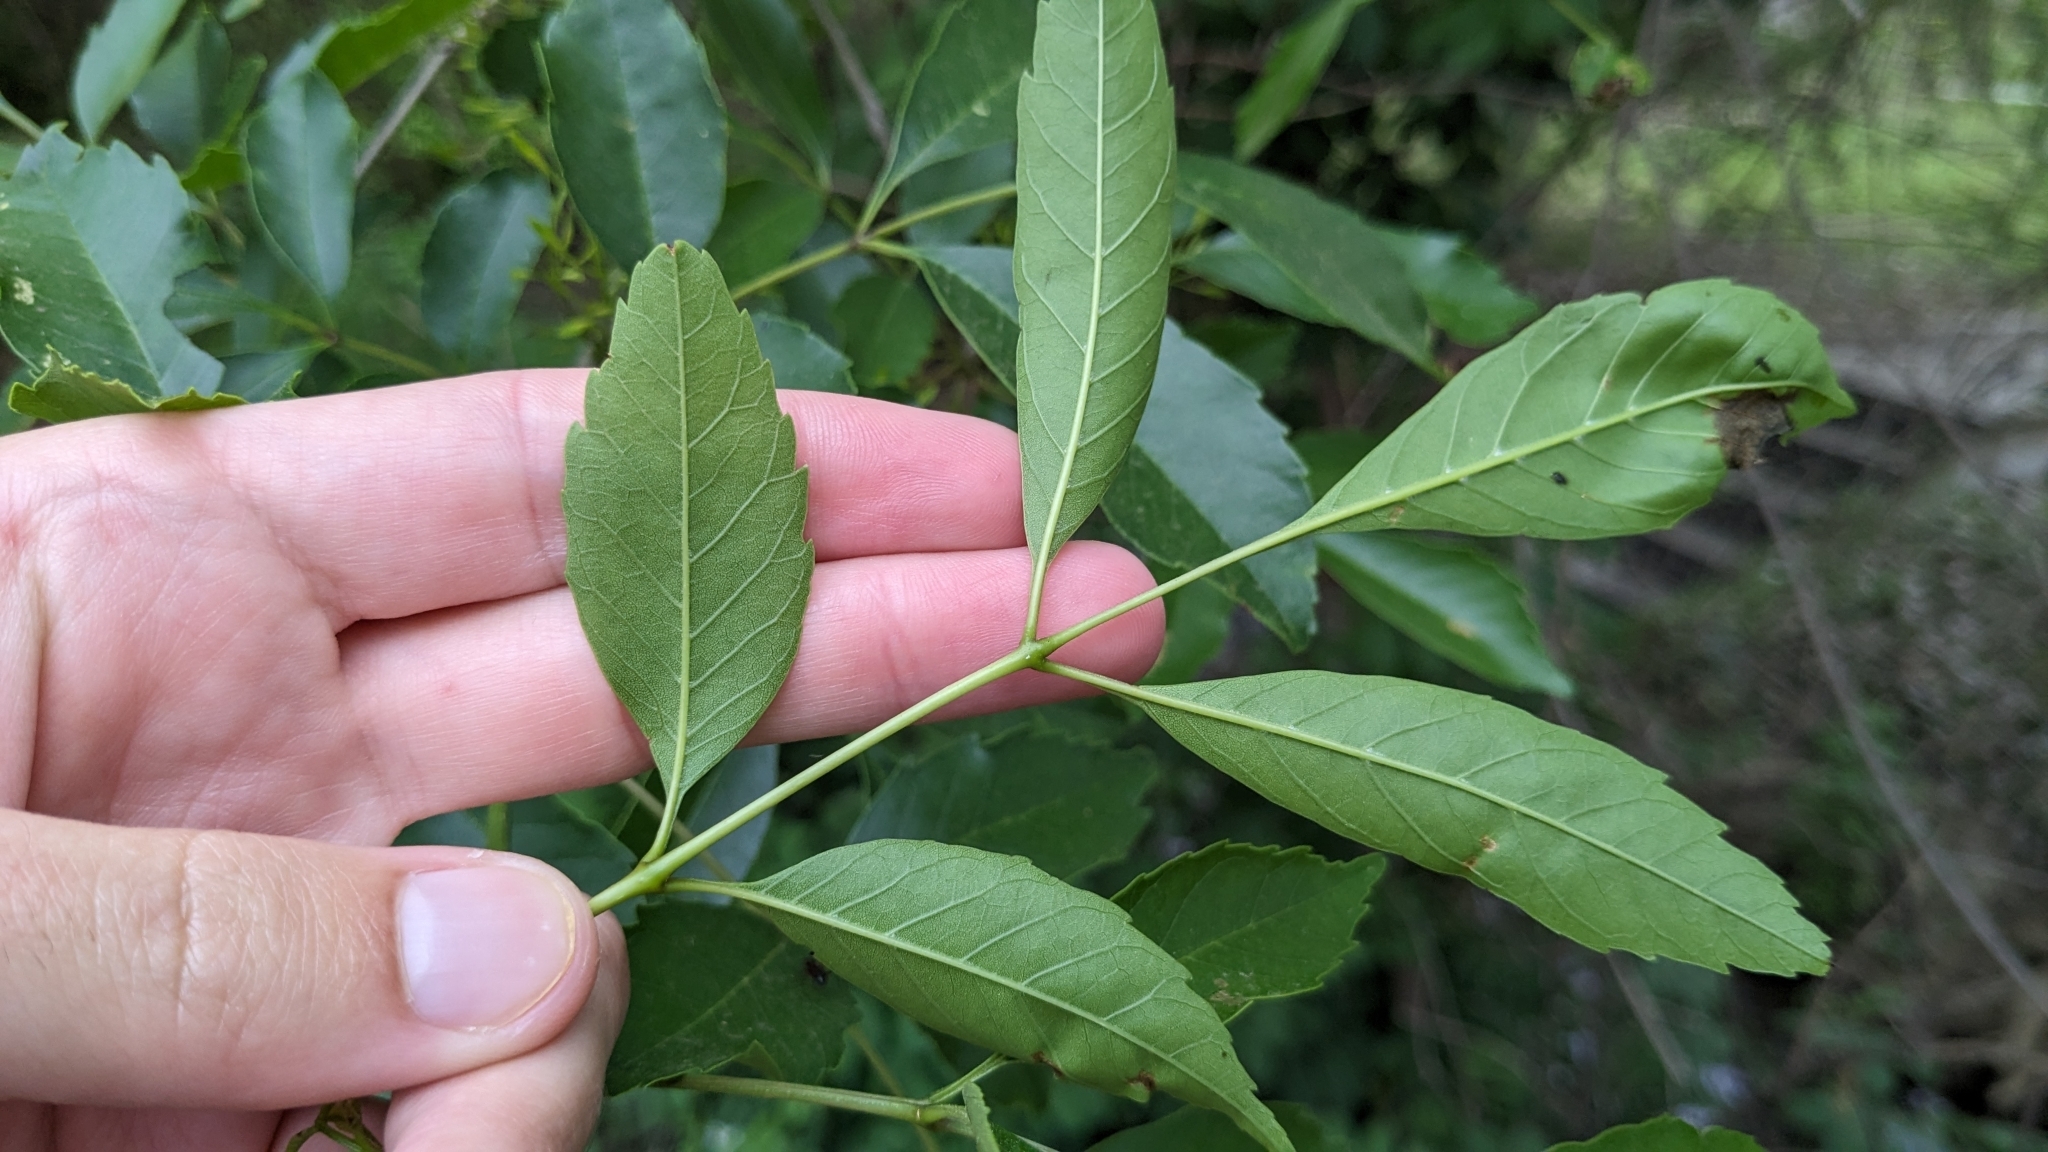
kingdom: Plantae
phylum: Tracheophyta
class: Magnoliopsida
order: Lamiales
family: Oleaceae
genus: Fraxinus
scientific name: Fraxinus berlandieriana
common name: Berlandier ash
